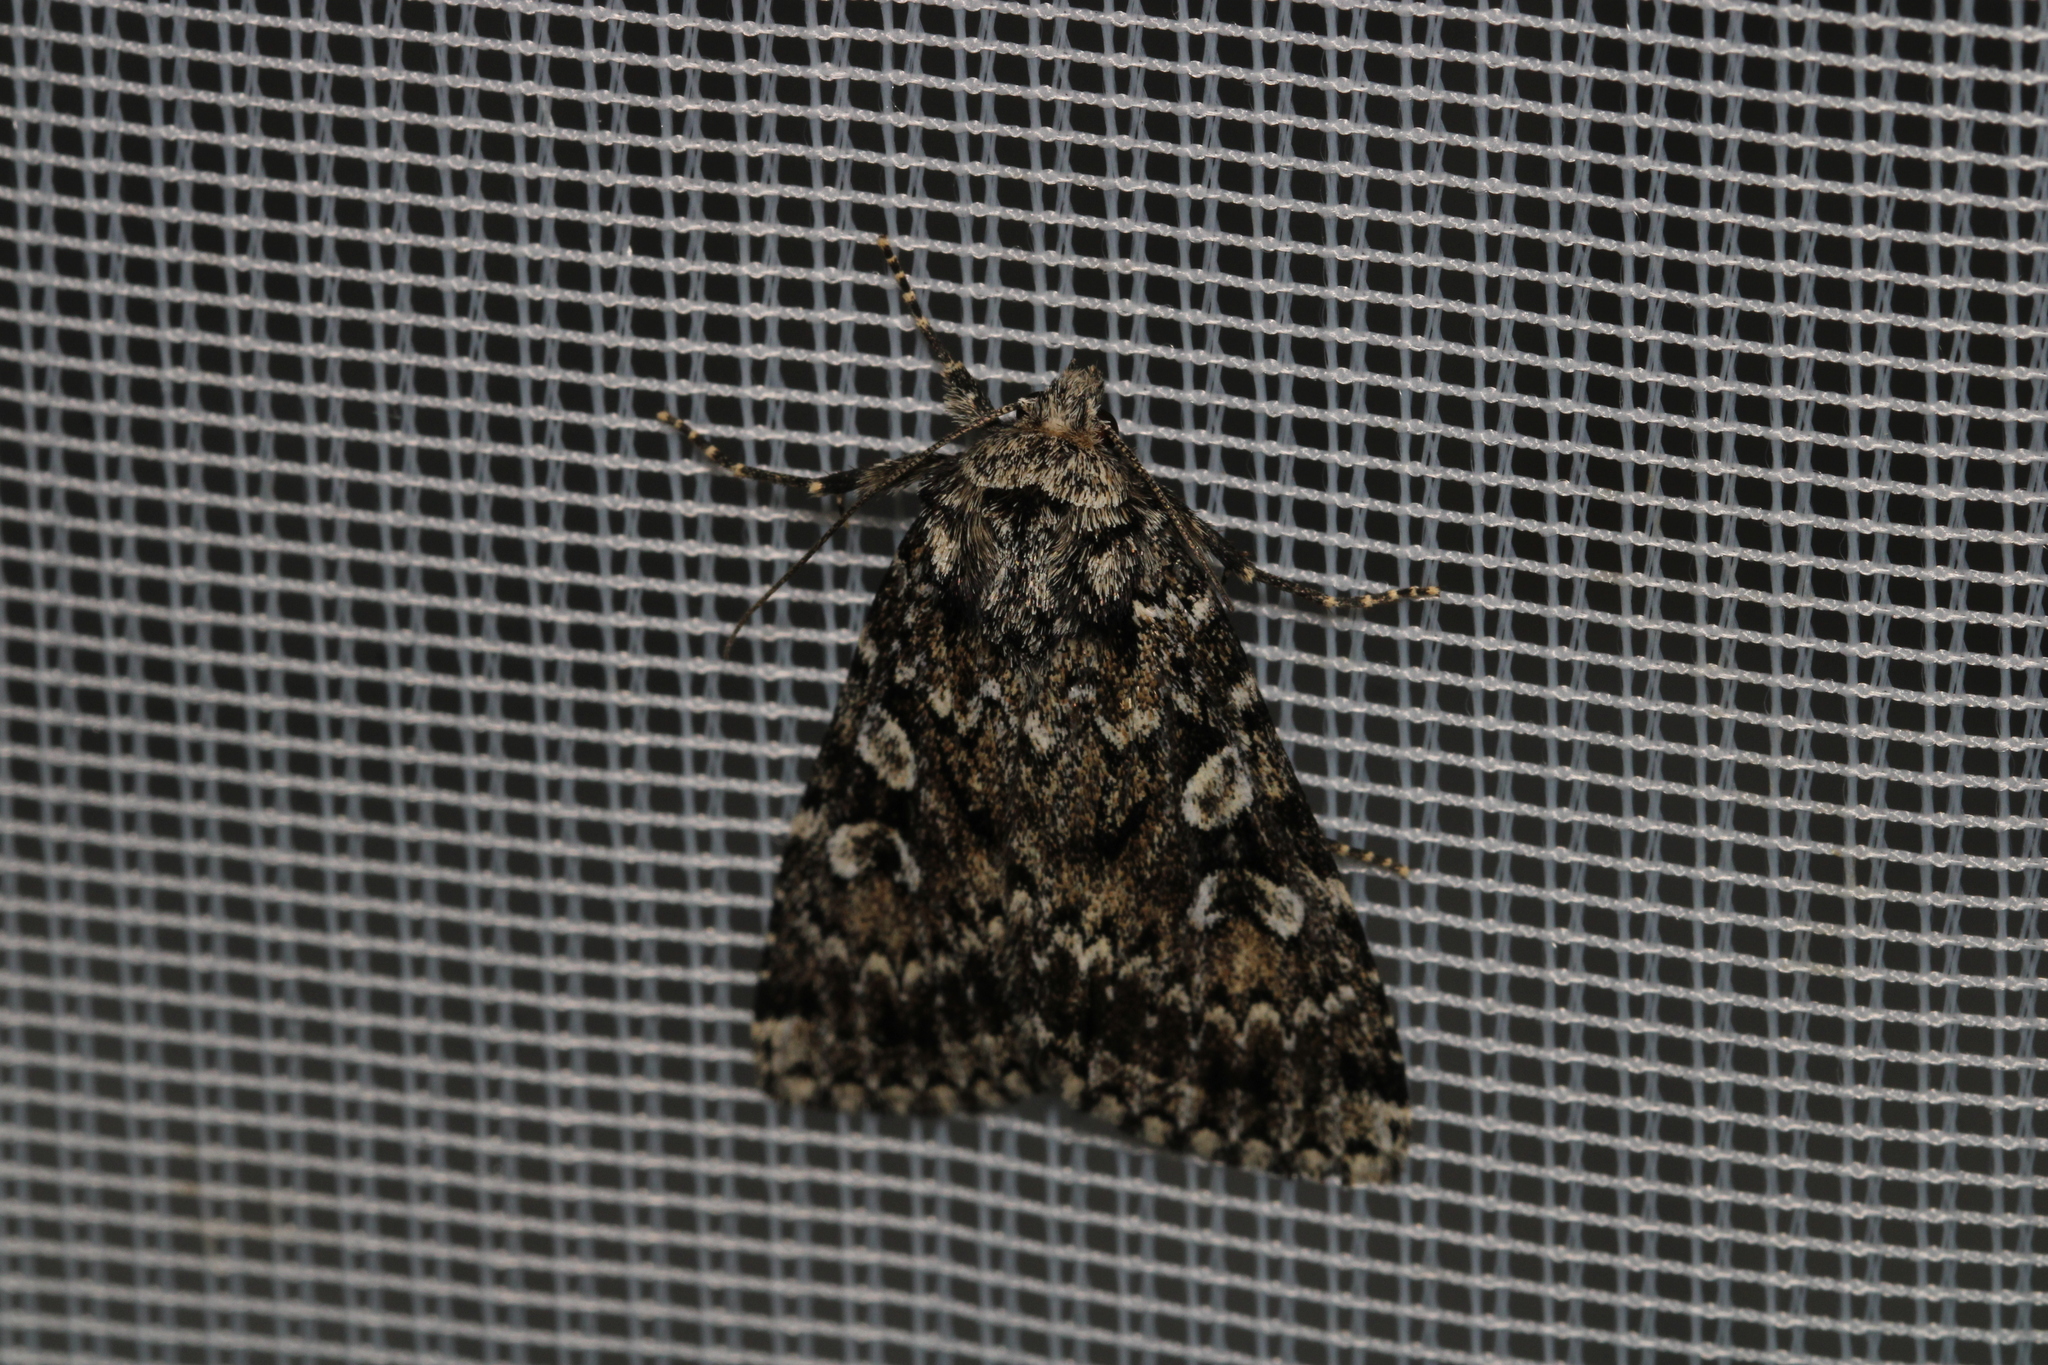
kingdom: Animalia
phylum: Arthropoda
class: Insecta
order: Lepidoptera
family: Noctuidae
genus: Xestia
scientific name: Xestia speciosa
